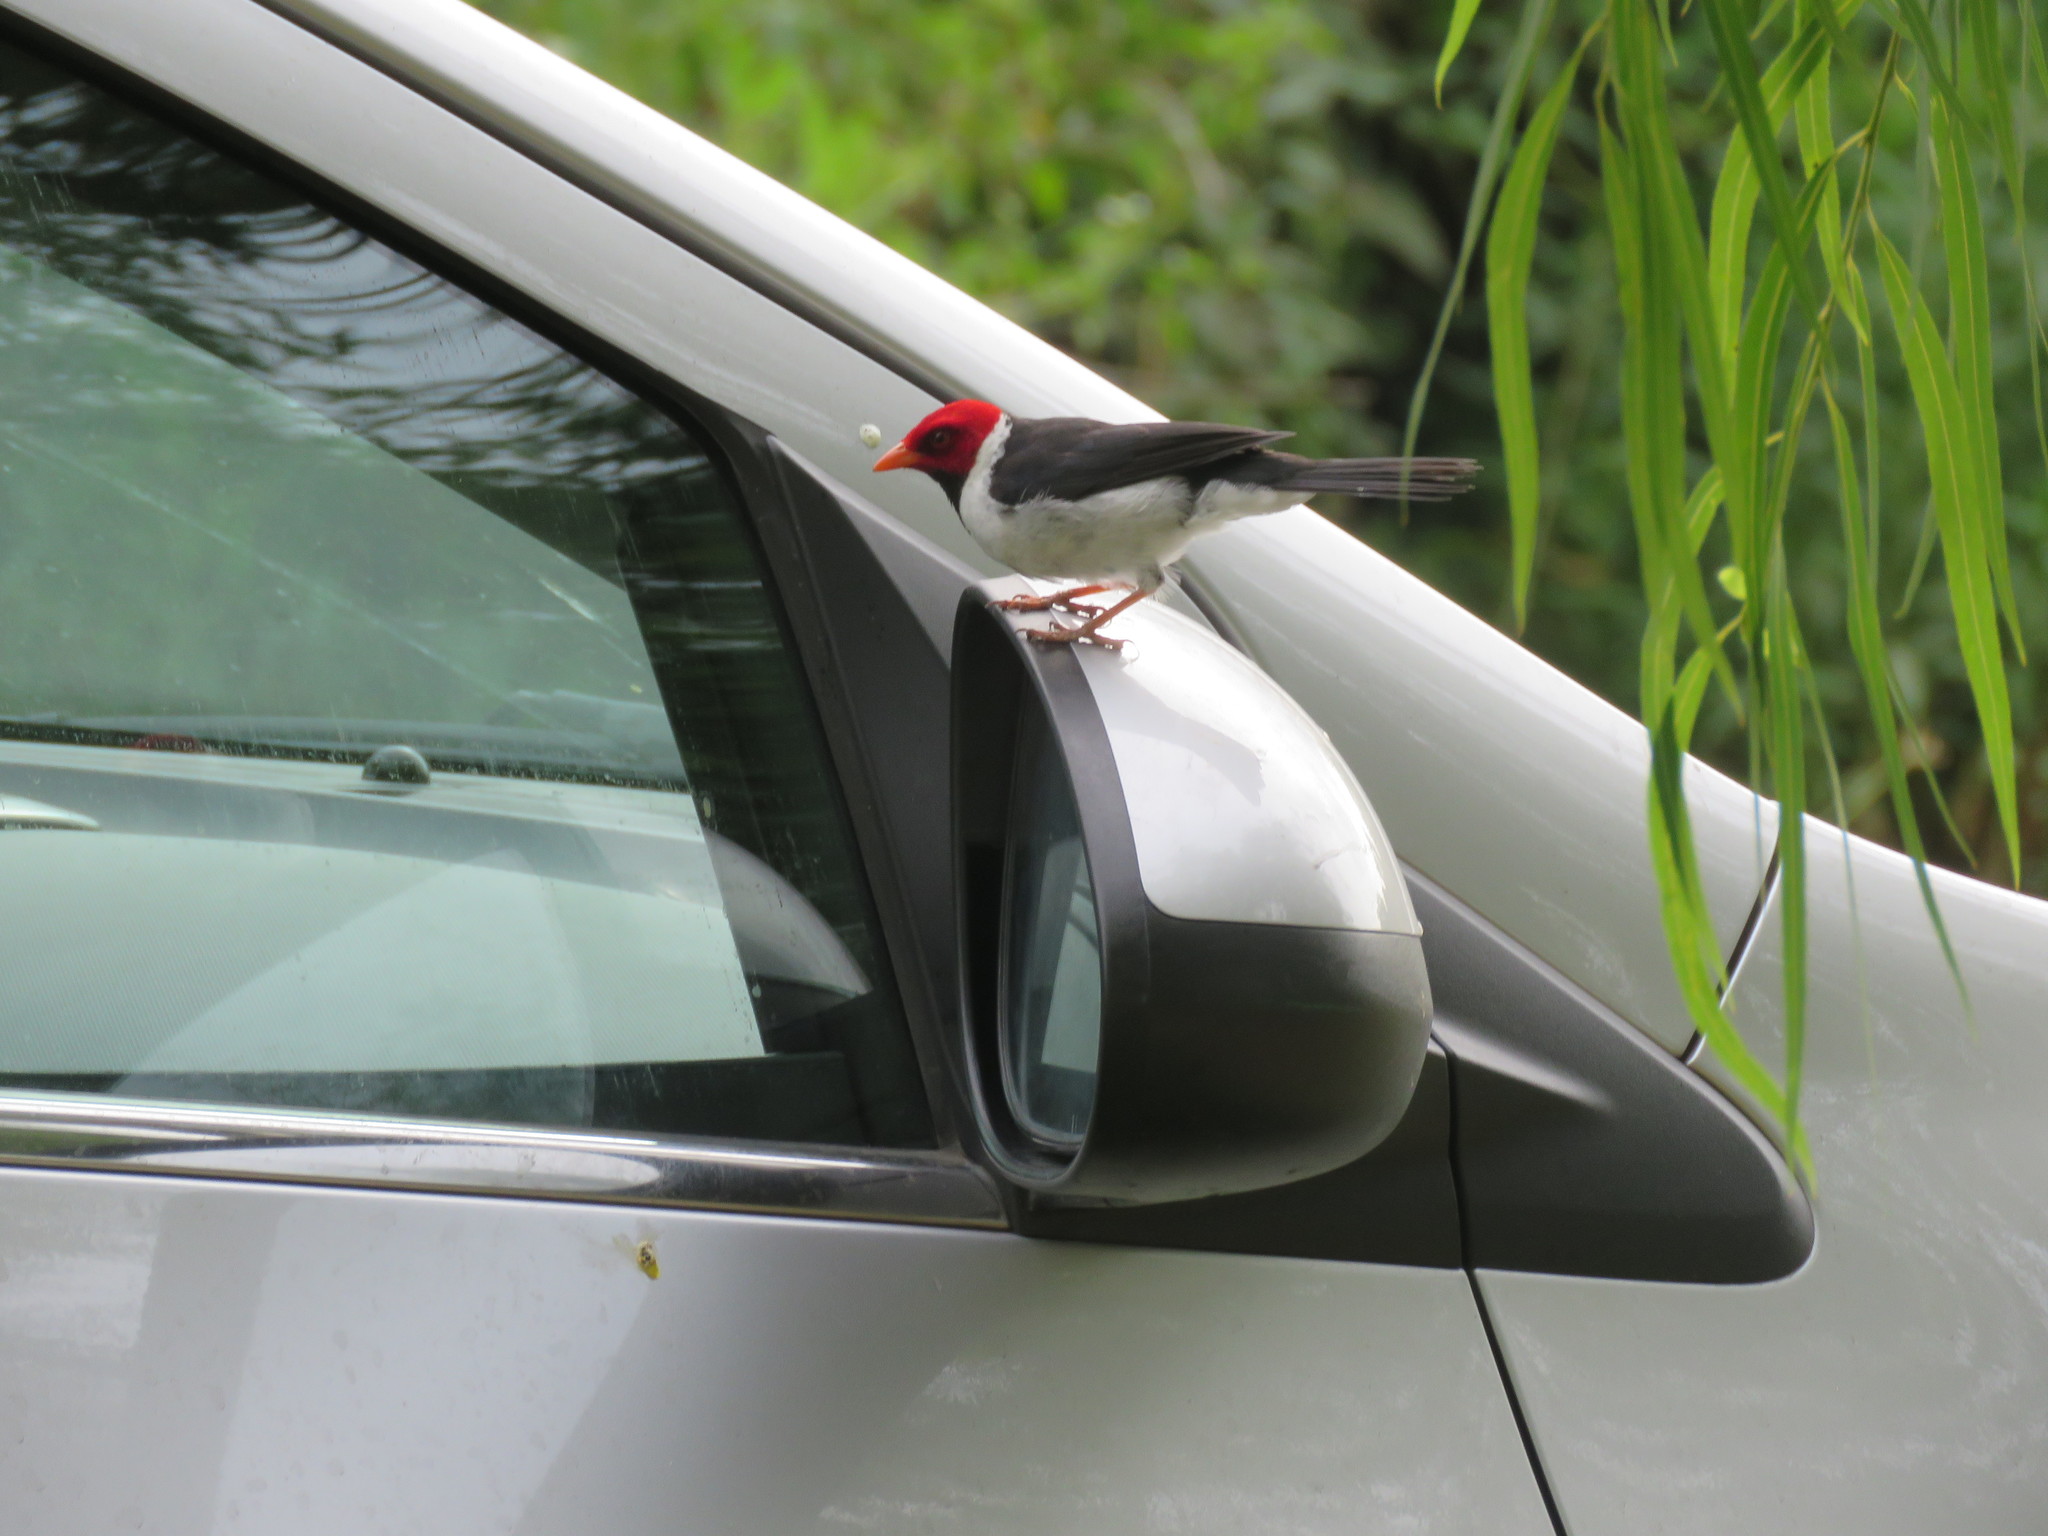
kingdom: Animalia
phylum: Chordata
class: Aves
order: Passeriformes
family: Thraupidae
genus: Paroaria
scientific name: Paroaria capitata
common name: Yellow-billed cardinal
